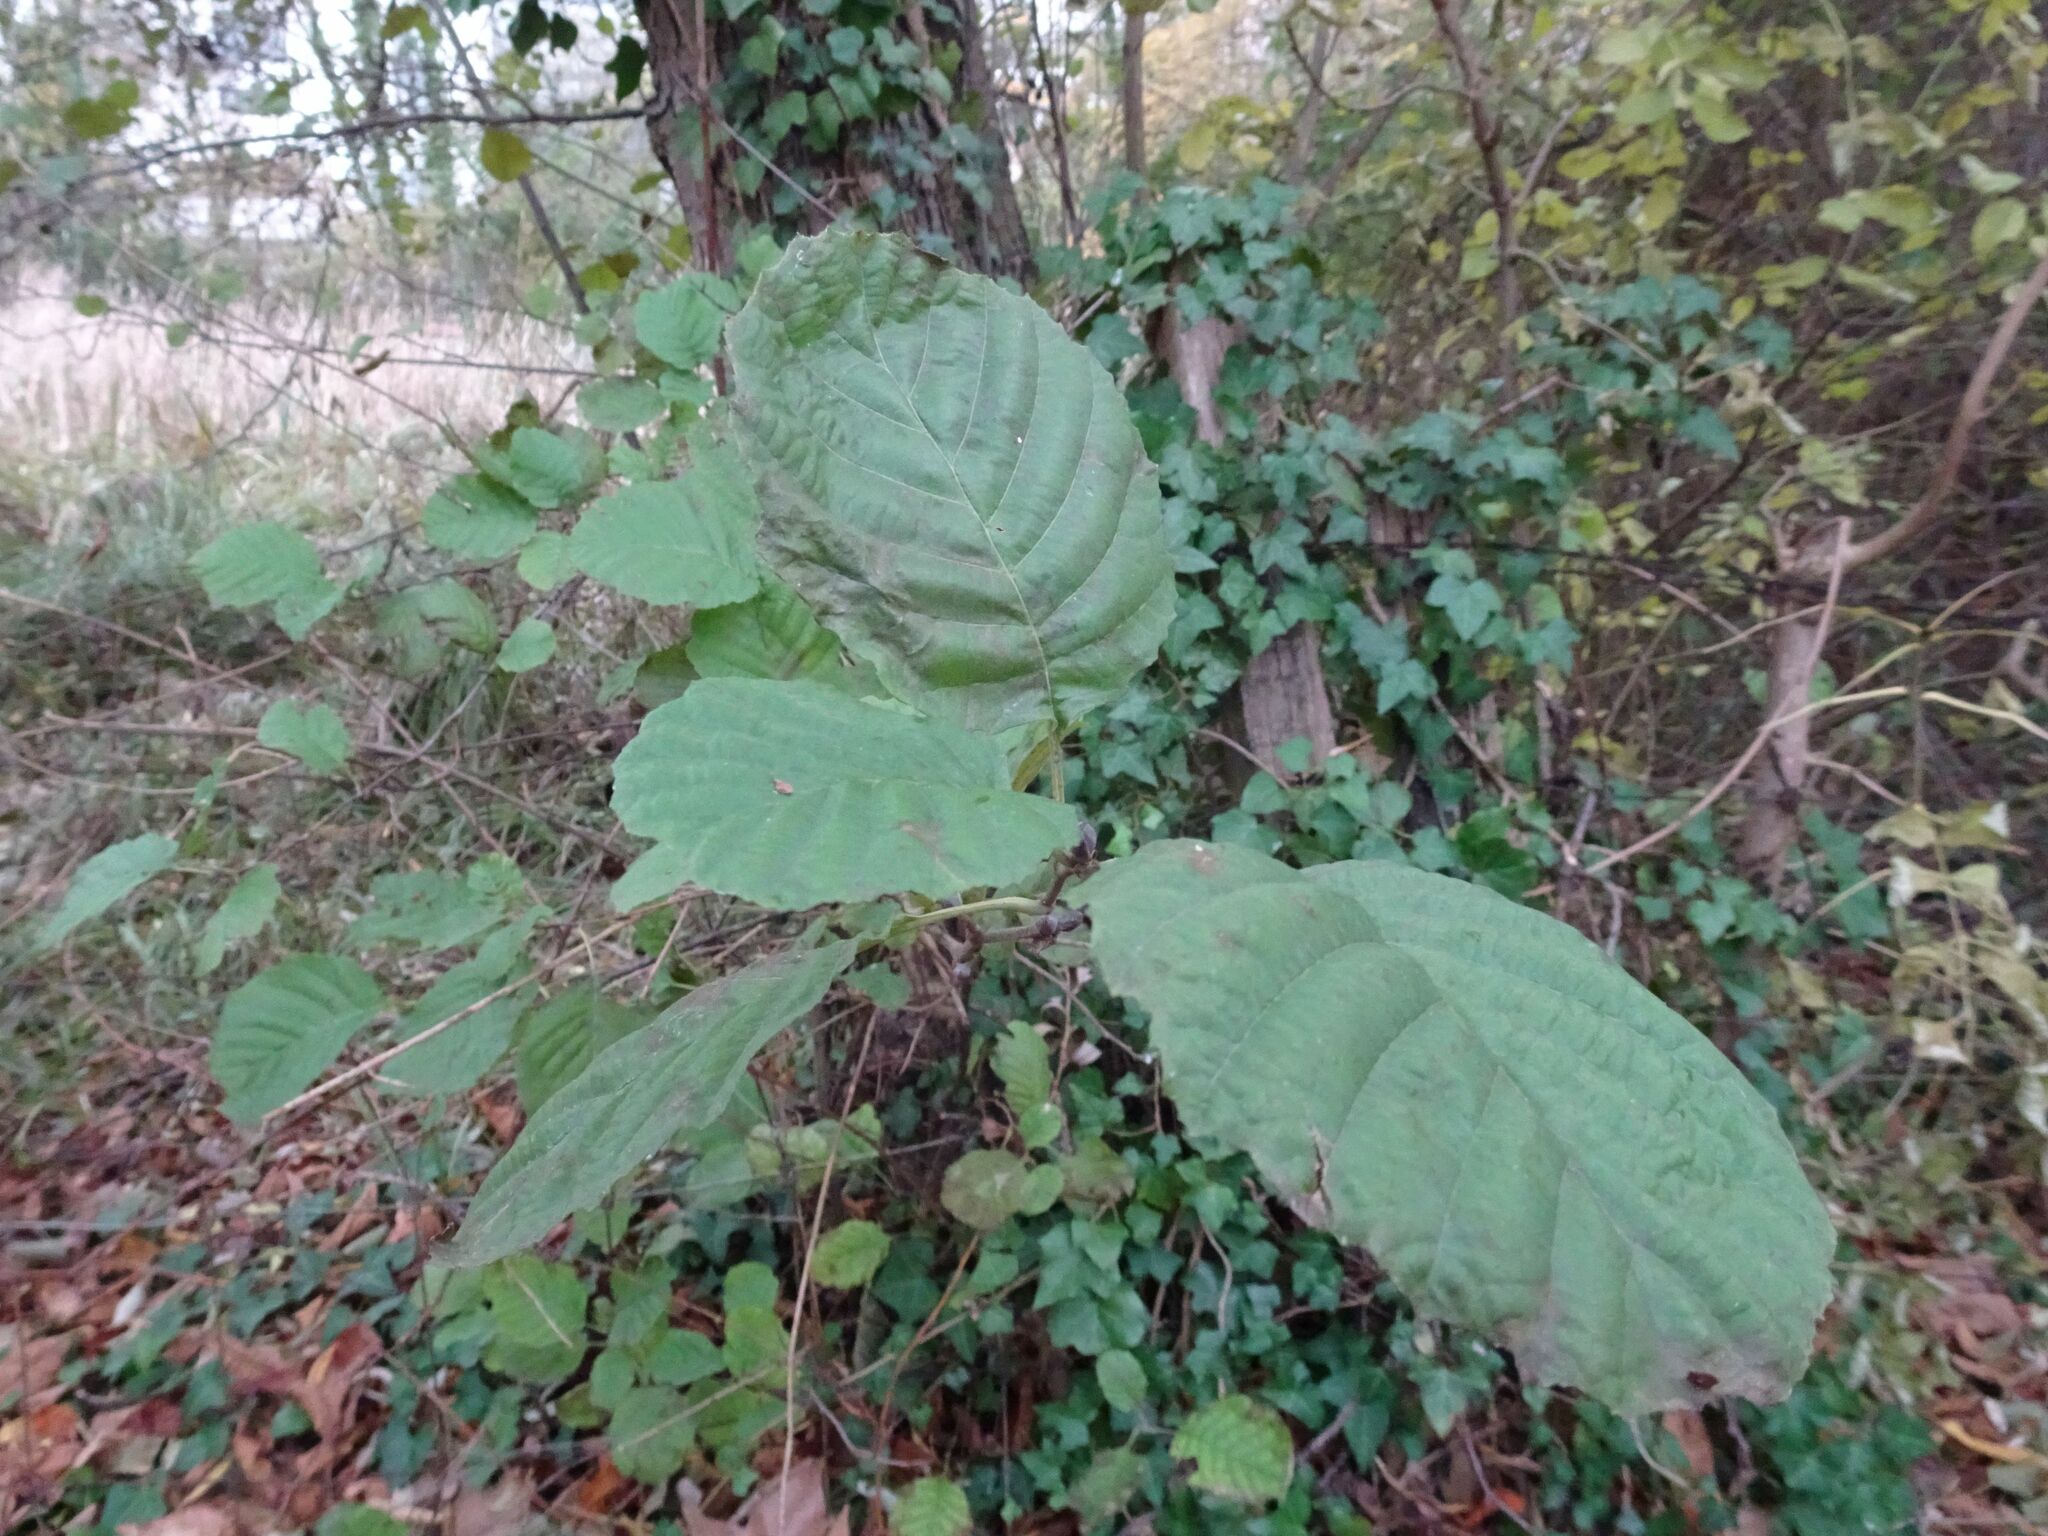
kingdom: Plantae
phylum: Tracheophyta
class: Magnoliopsida
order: Fagales
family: Betulaceae
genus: Alnus
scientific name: Alnus glutinosa
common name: Black alder
